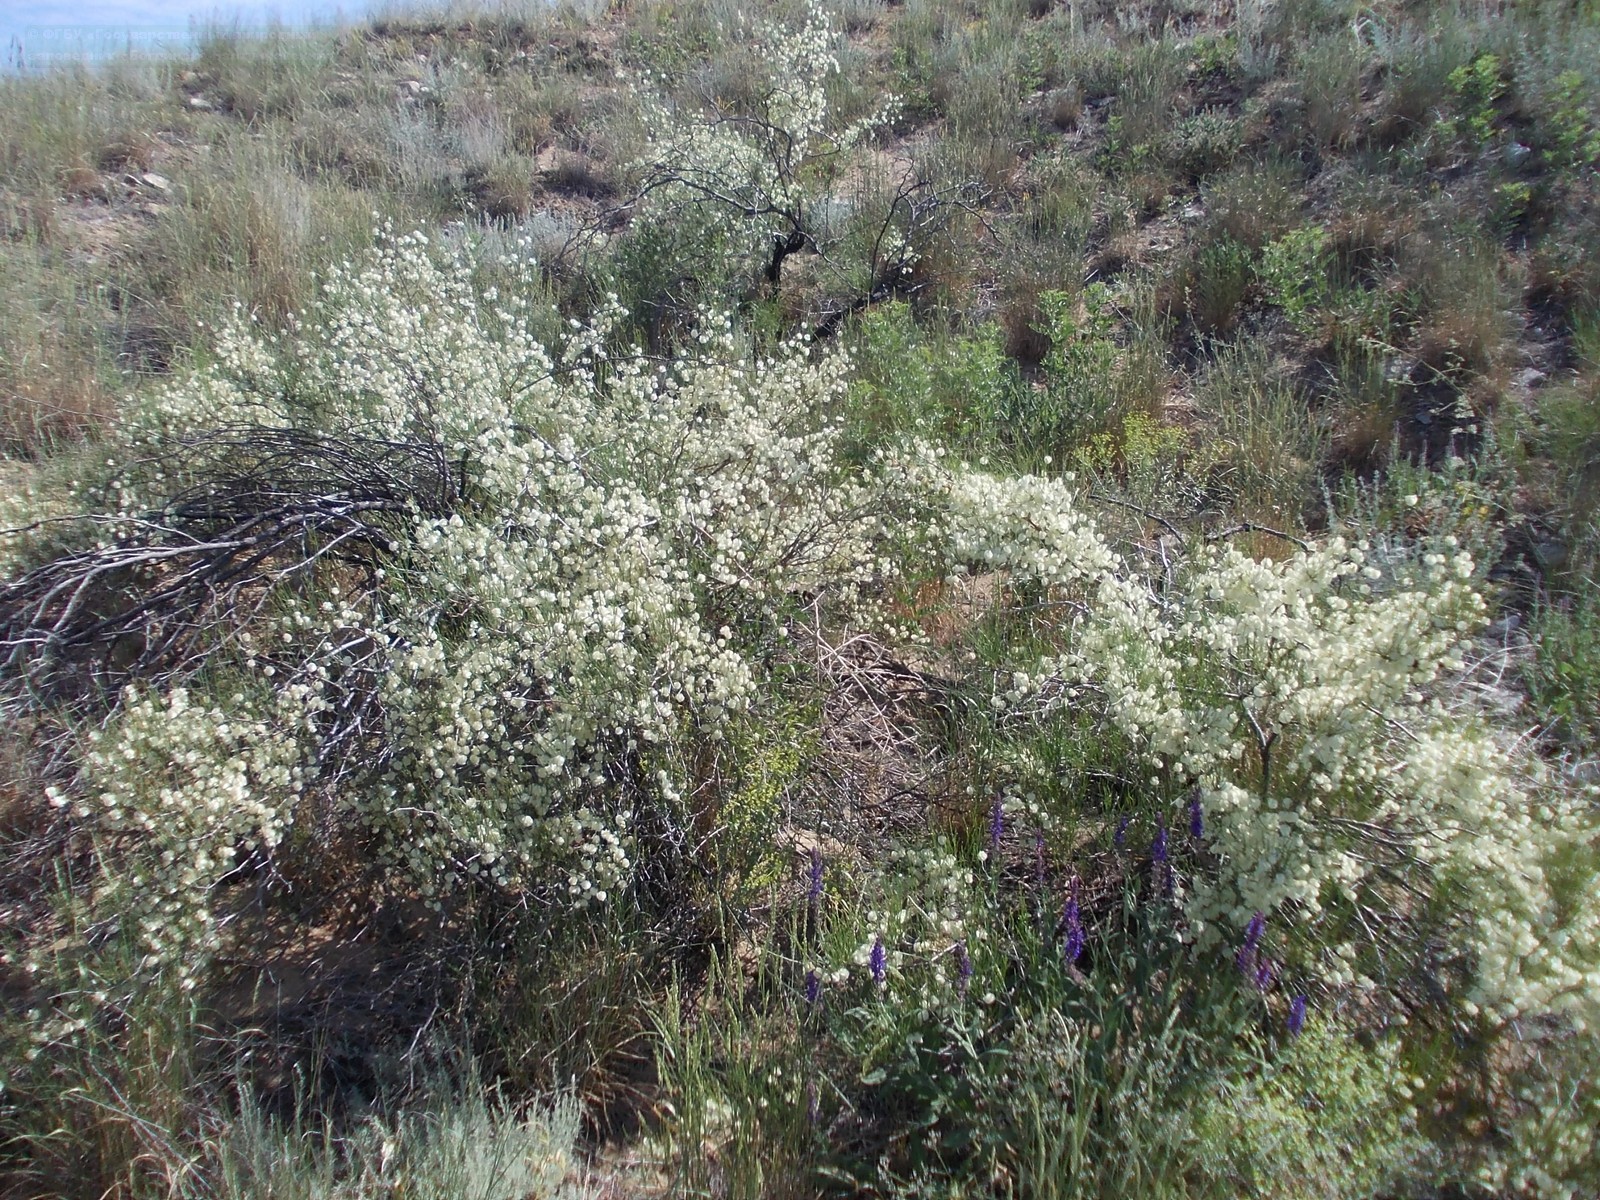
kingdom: Plantae
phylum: Tracheophyta
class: Magnoliopsida
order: Caryophyllales
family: Polygonaceae
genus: Calligonum
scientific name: Calligonum aphyllum
